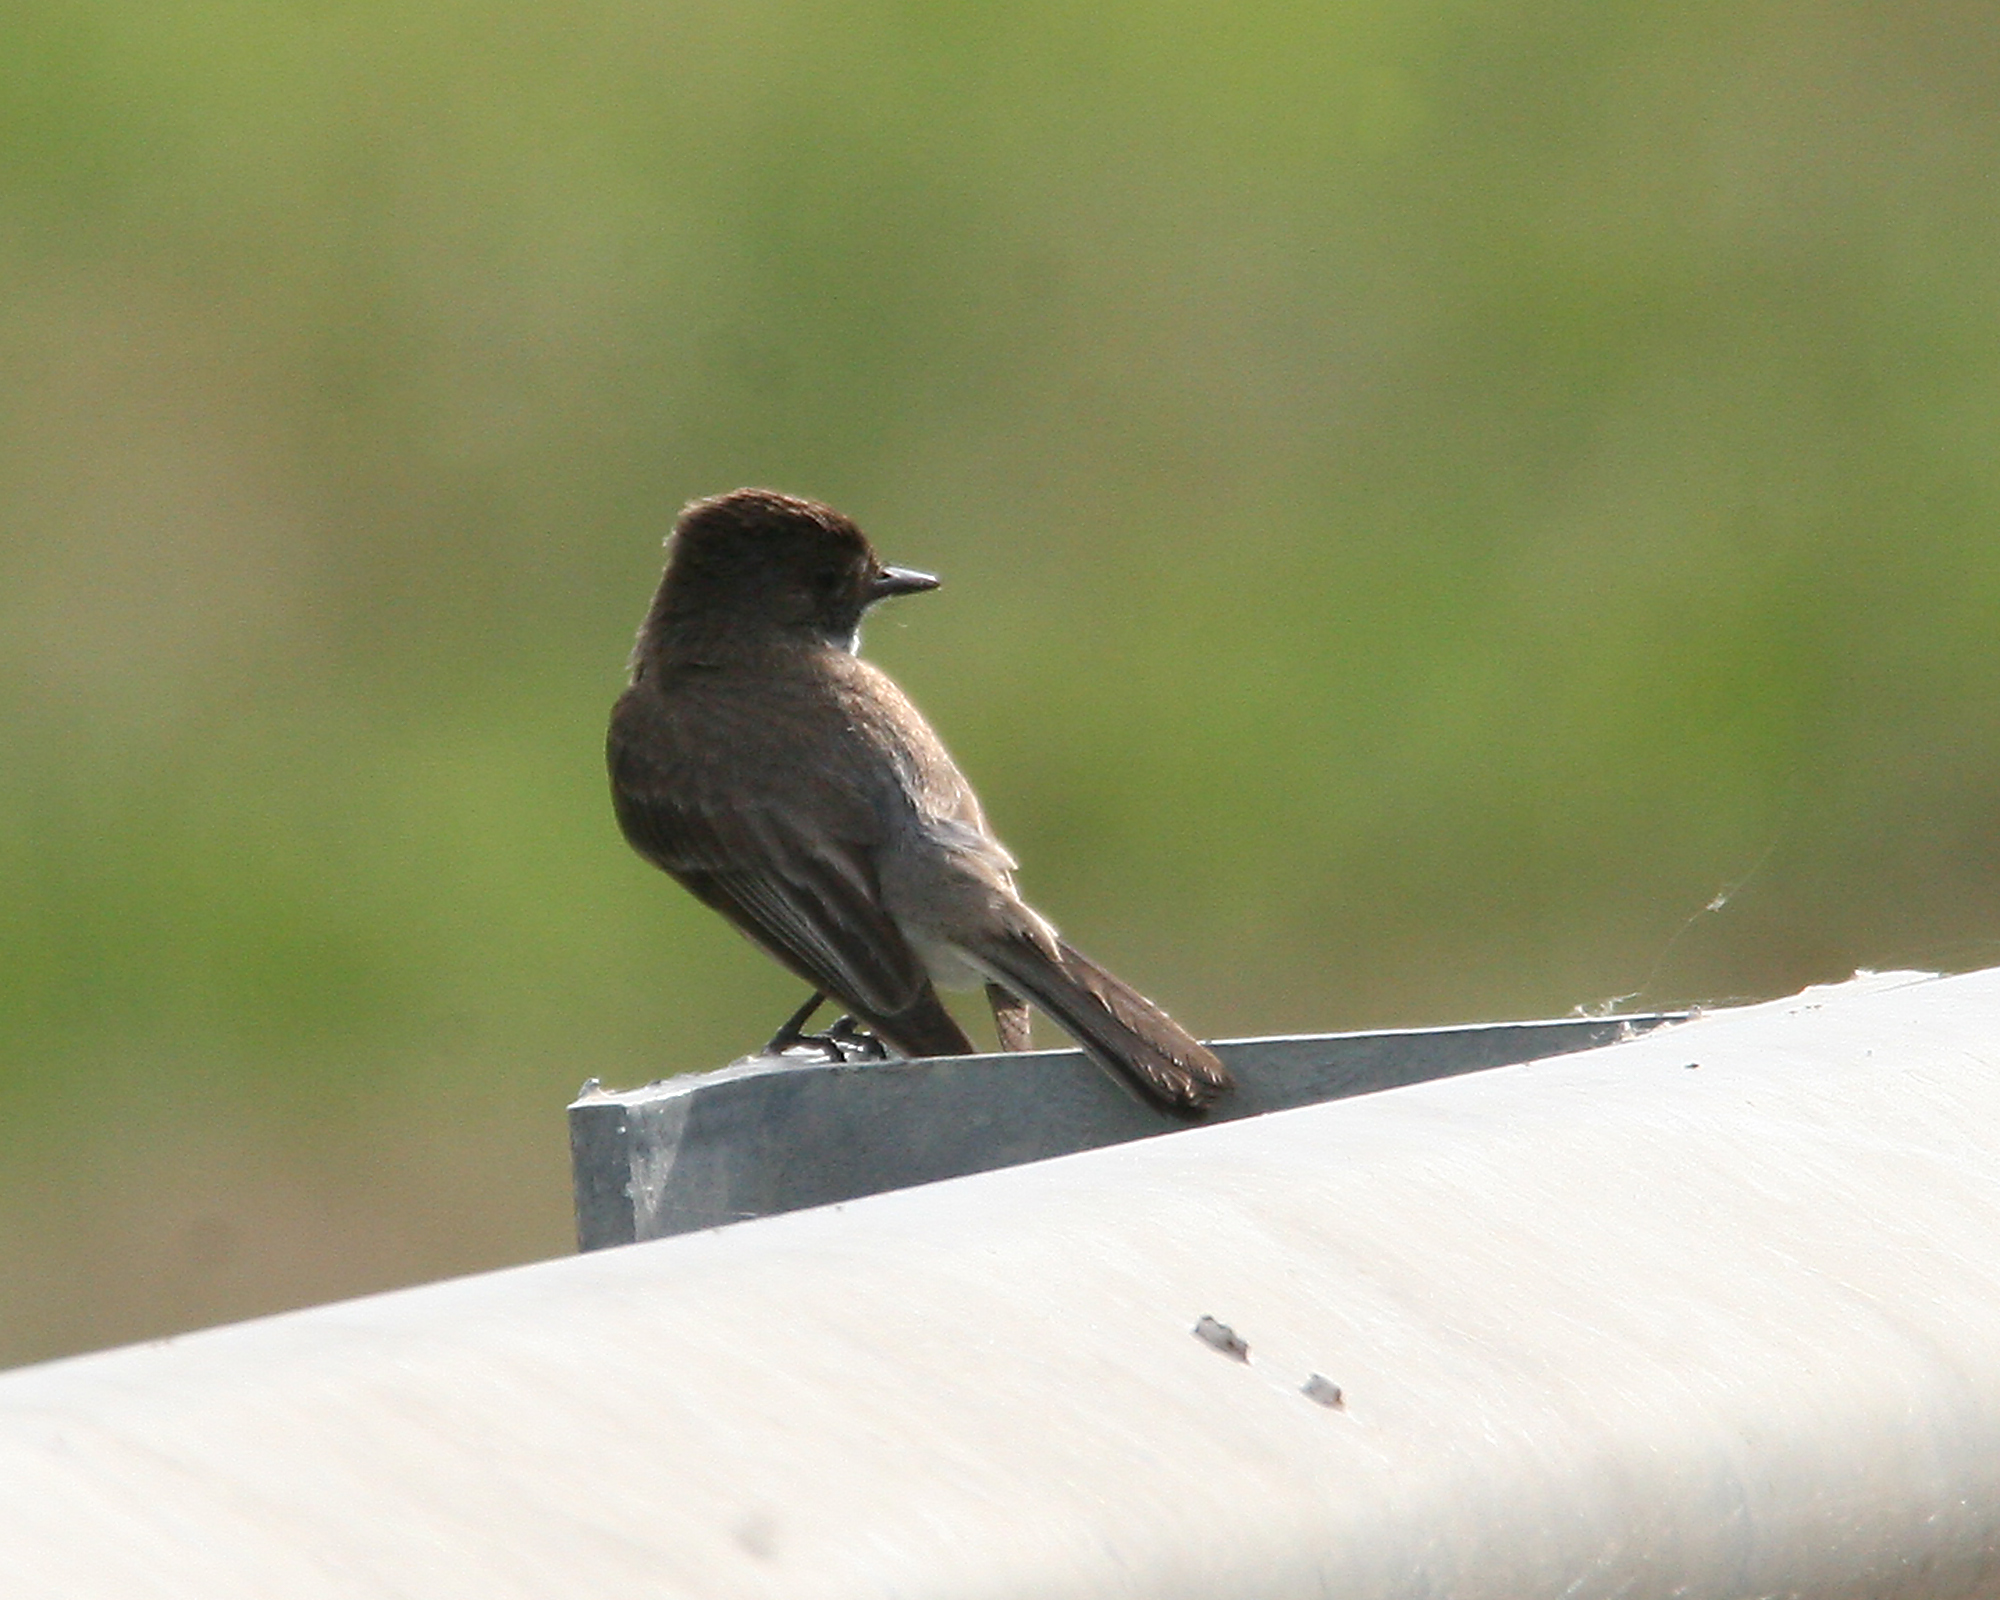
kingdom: Animalia
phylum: Chordata
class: Aves
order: Passeriformes
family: Tyrannidae
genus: Sayornis
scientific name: Sayornis phoebe
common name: Eastern phoebe
